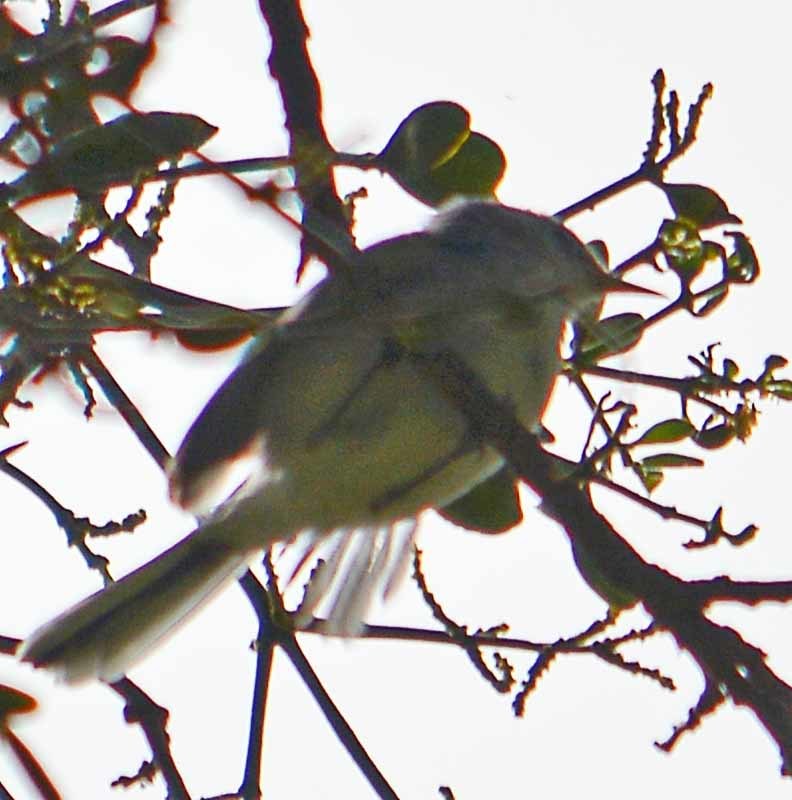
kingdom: Animalia
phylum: Chordata
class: Aves
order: Passeriformes
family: Polioptilidae
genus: Polioptila
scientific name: Polioptila caerulea
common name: Blue-gray gnatcatcher
